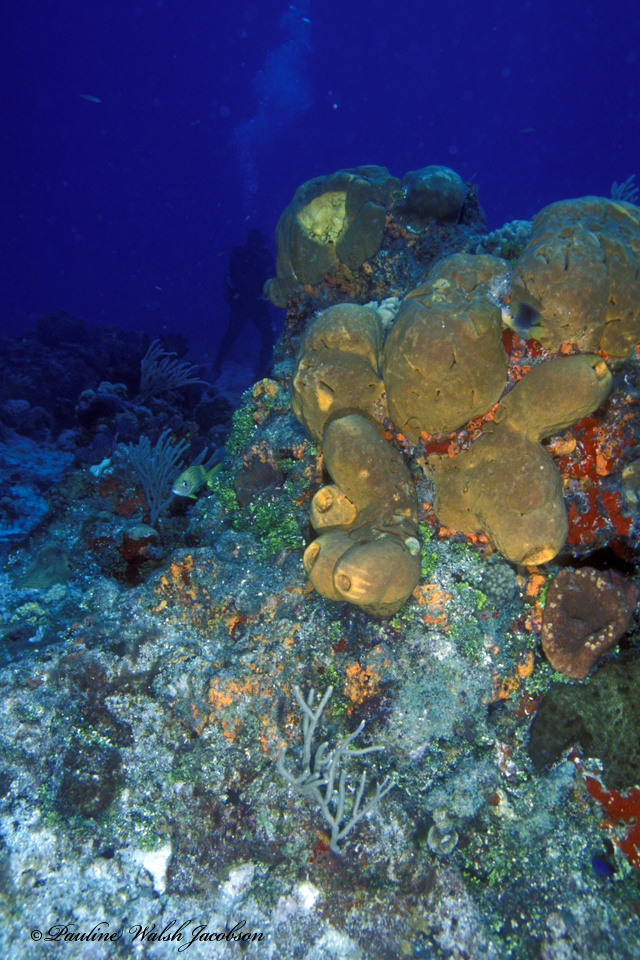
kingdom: Animalia
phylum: Porifera
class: Demospongiae
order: Agelasida
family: Agelasidae
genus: Agelas
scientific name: Agelas tubulata
